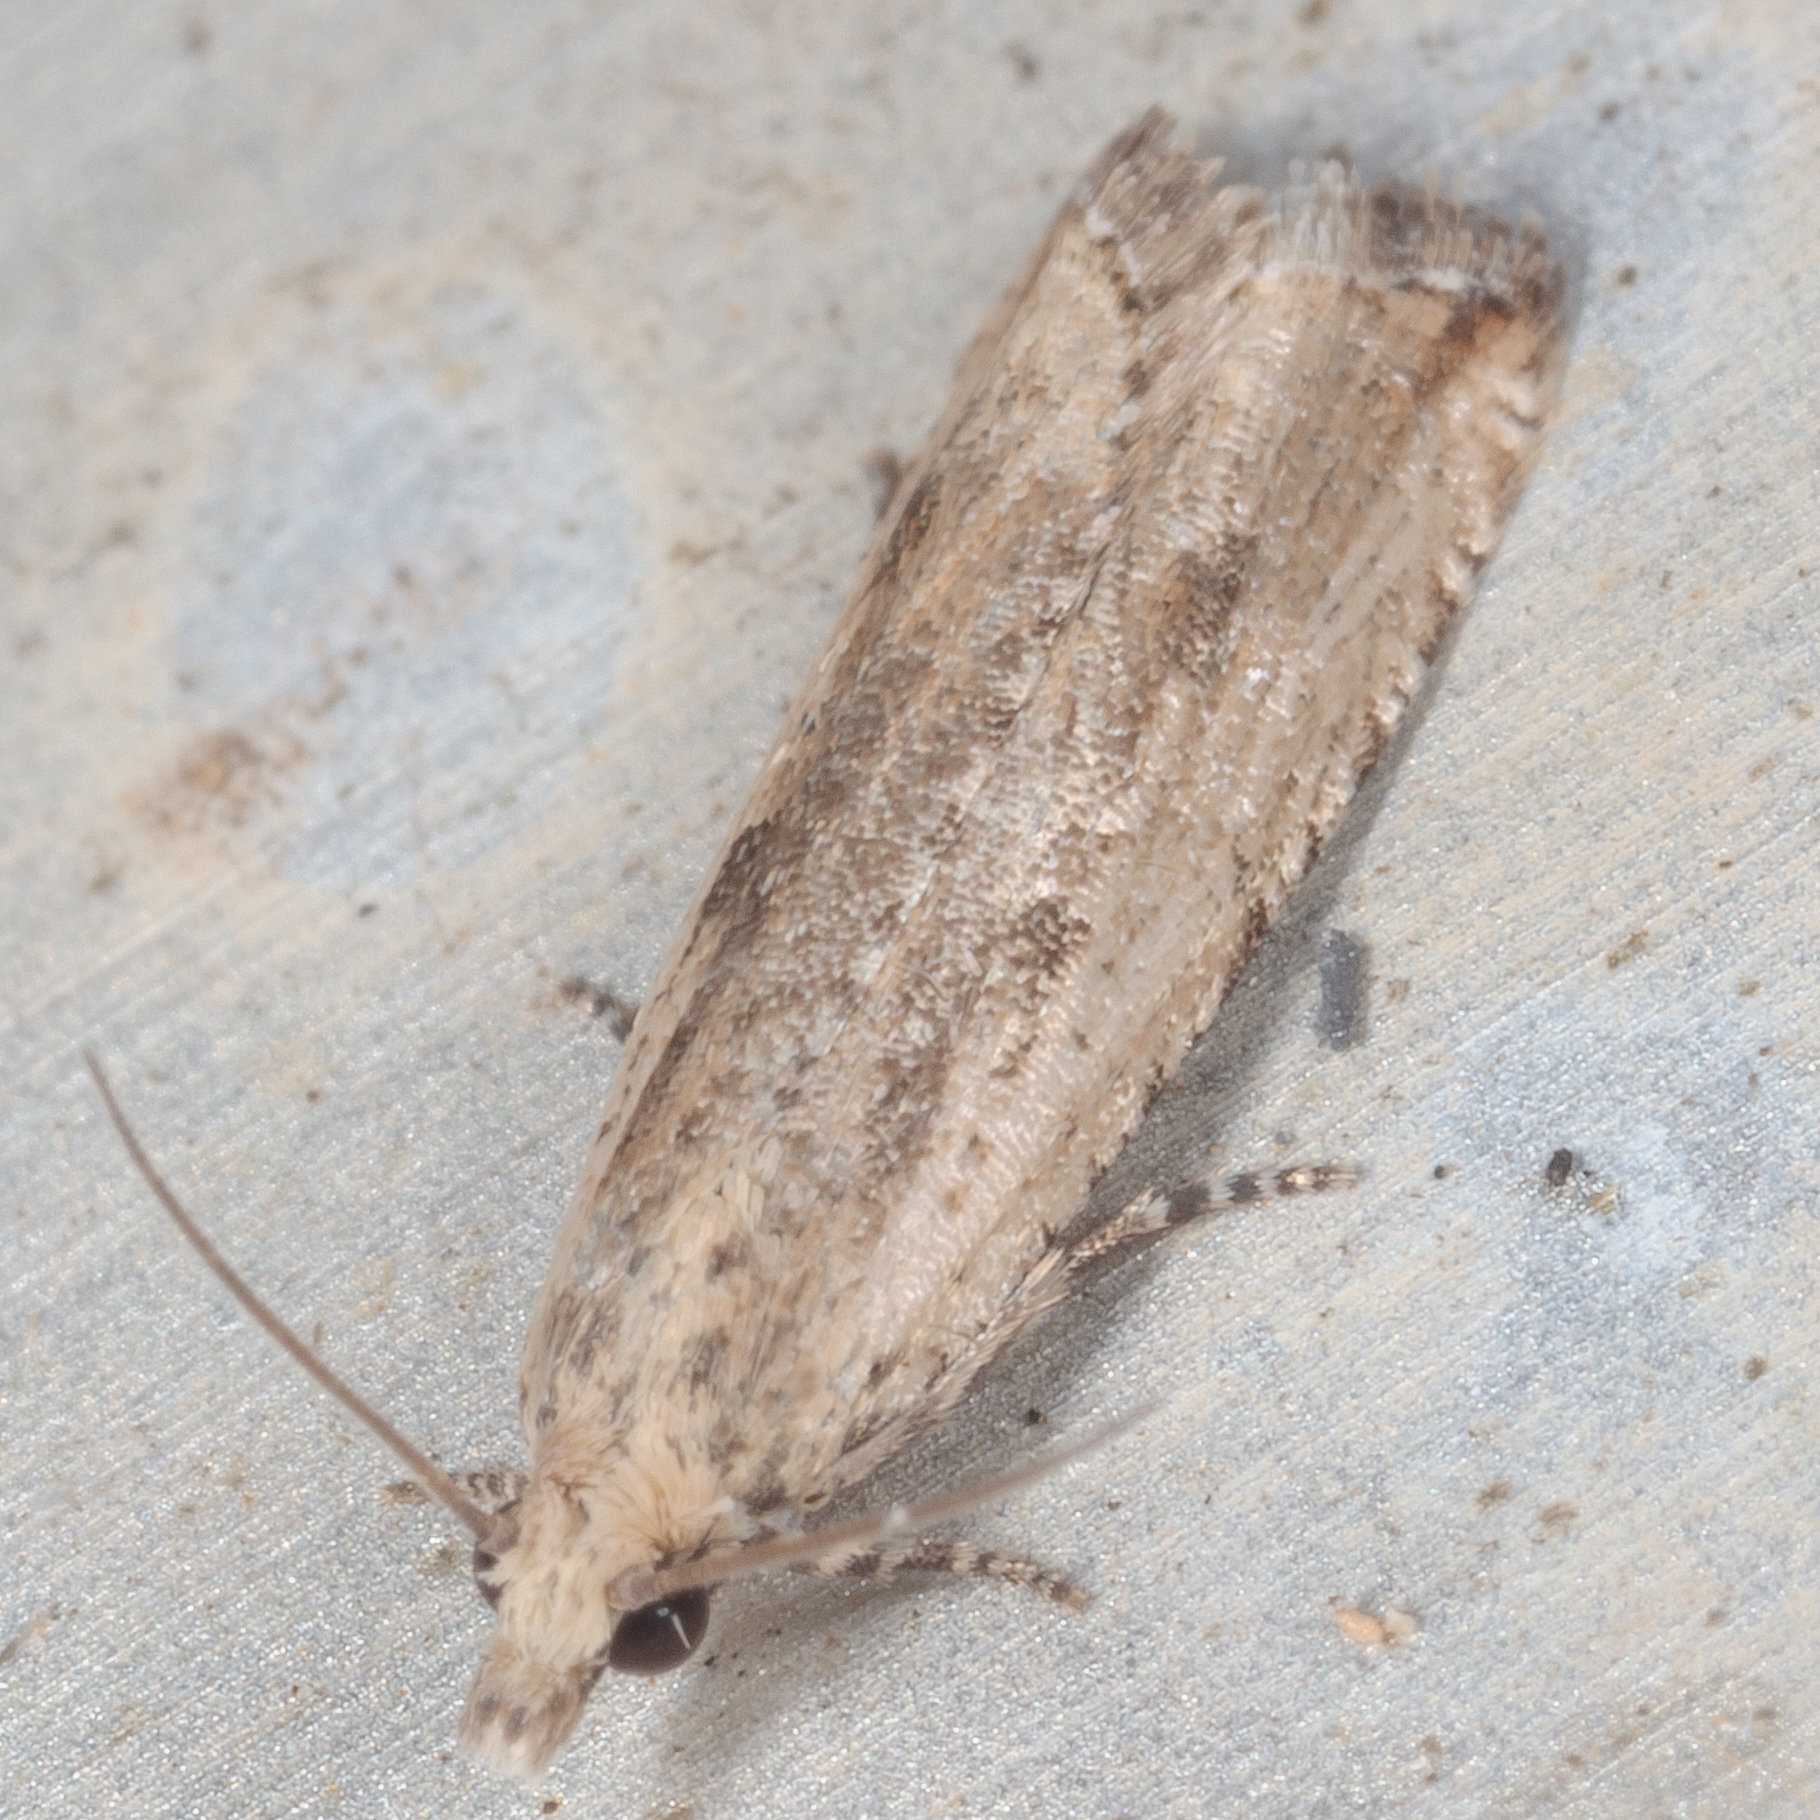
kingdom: Animalia
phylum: Arthropoda
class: Insecta
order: Lepidoptera
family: Tortricidae
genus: Bactra
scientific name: Bactra verutana
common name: Javelin moth
